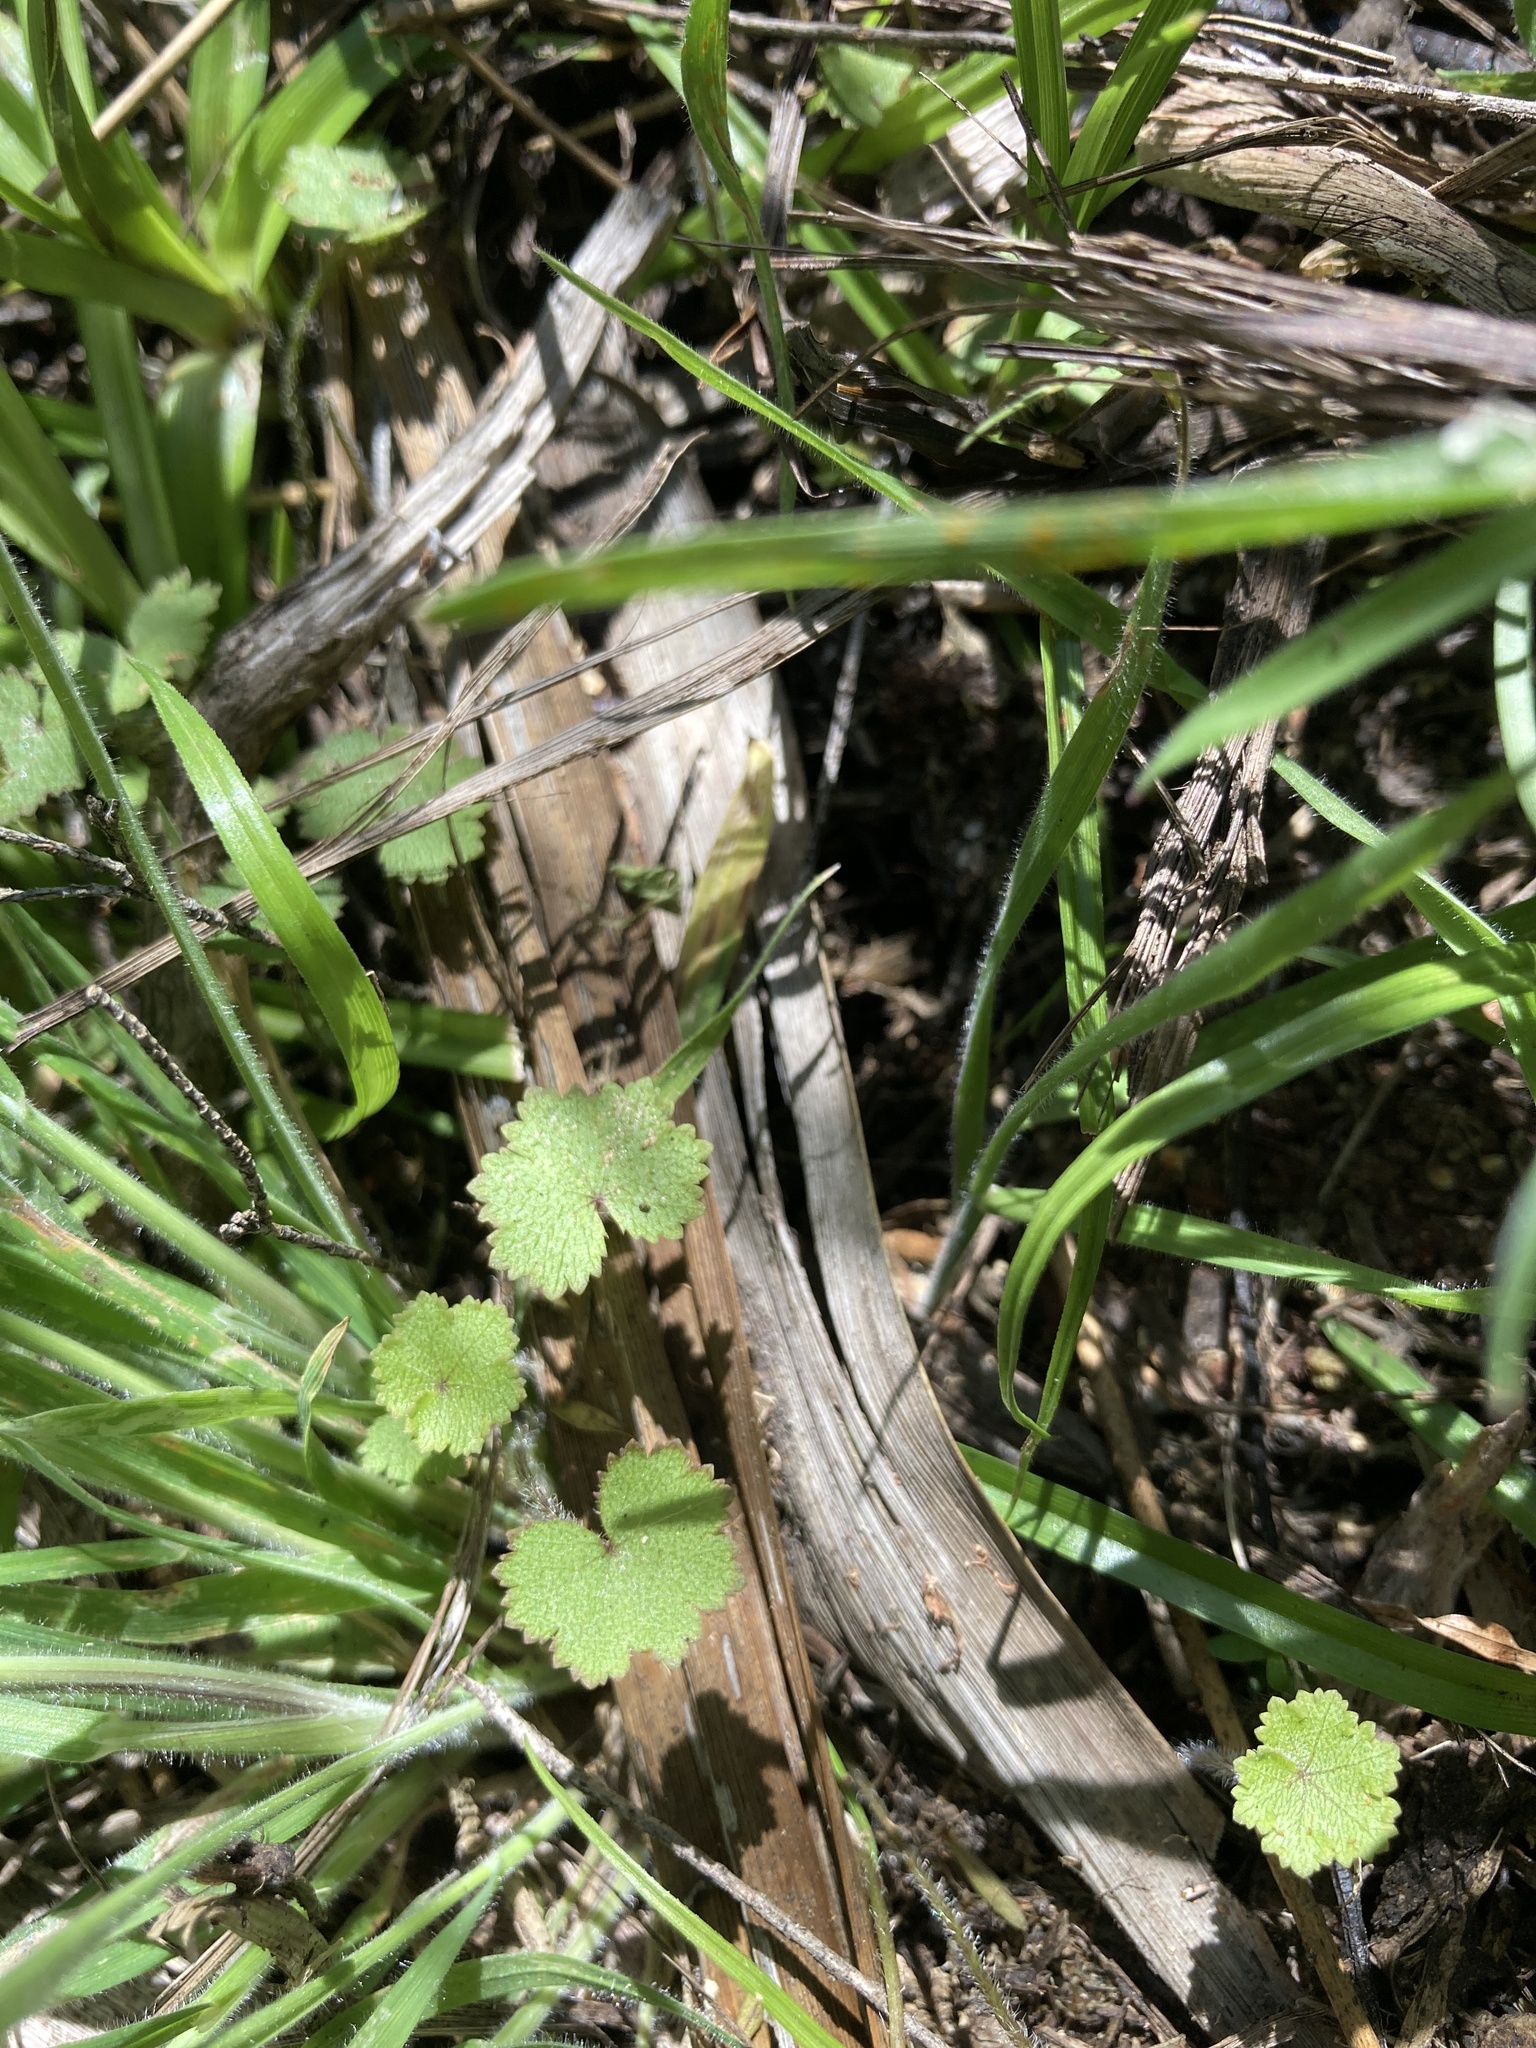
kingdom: Plantae
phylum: Tracheophyta
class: Magnoliopsida
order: Apiales
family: Araliaceae
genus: Hydrocotyle
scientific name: Hydrocotyle moschata
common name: Hairy pennywort
